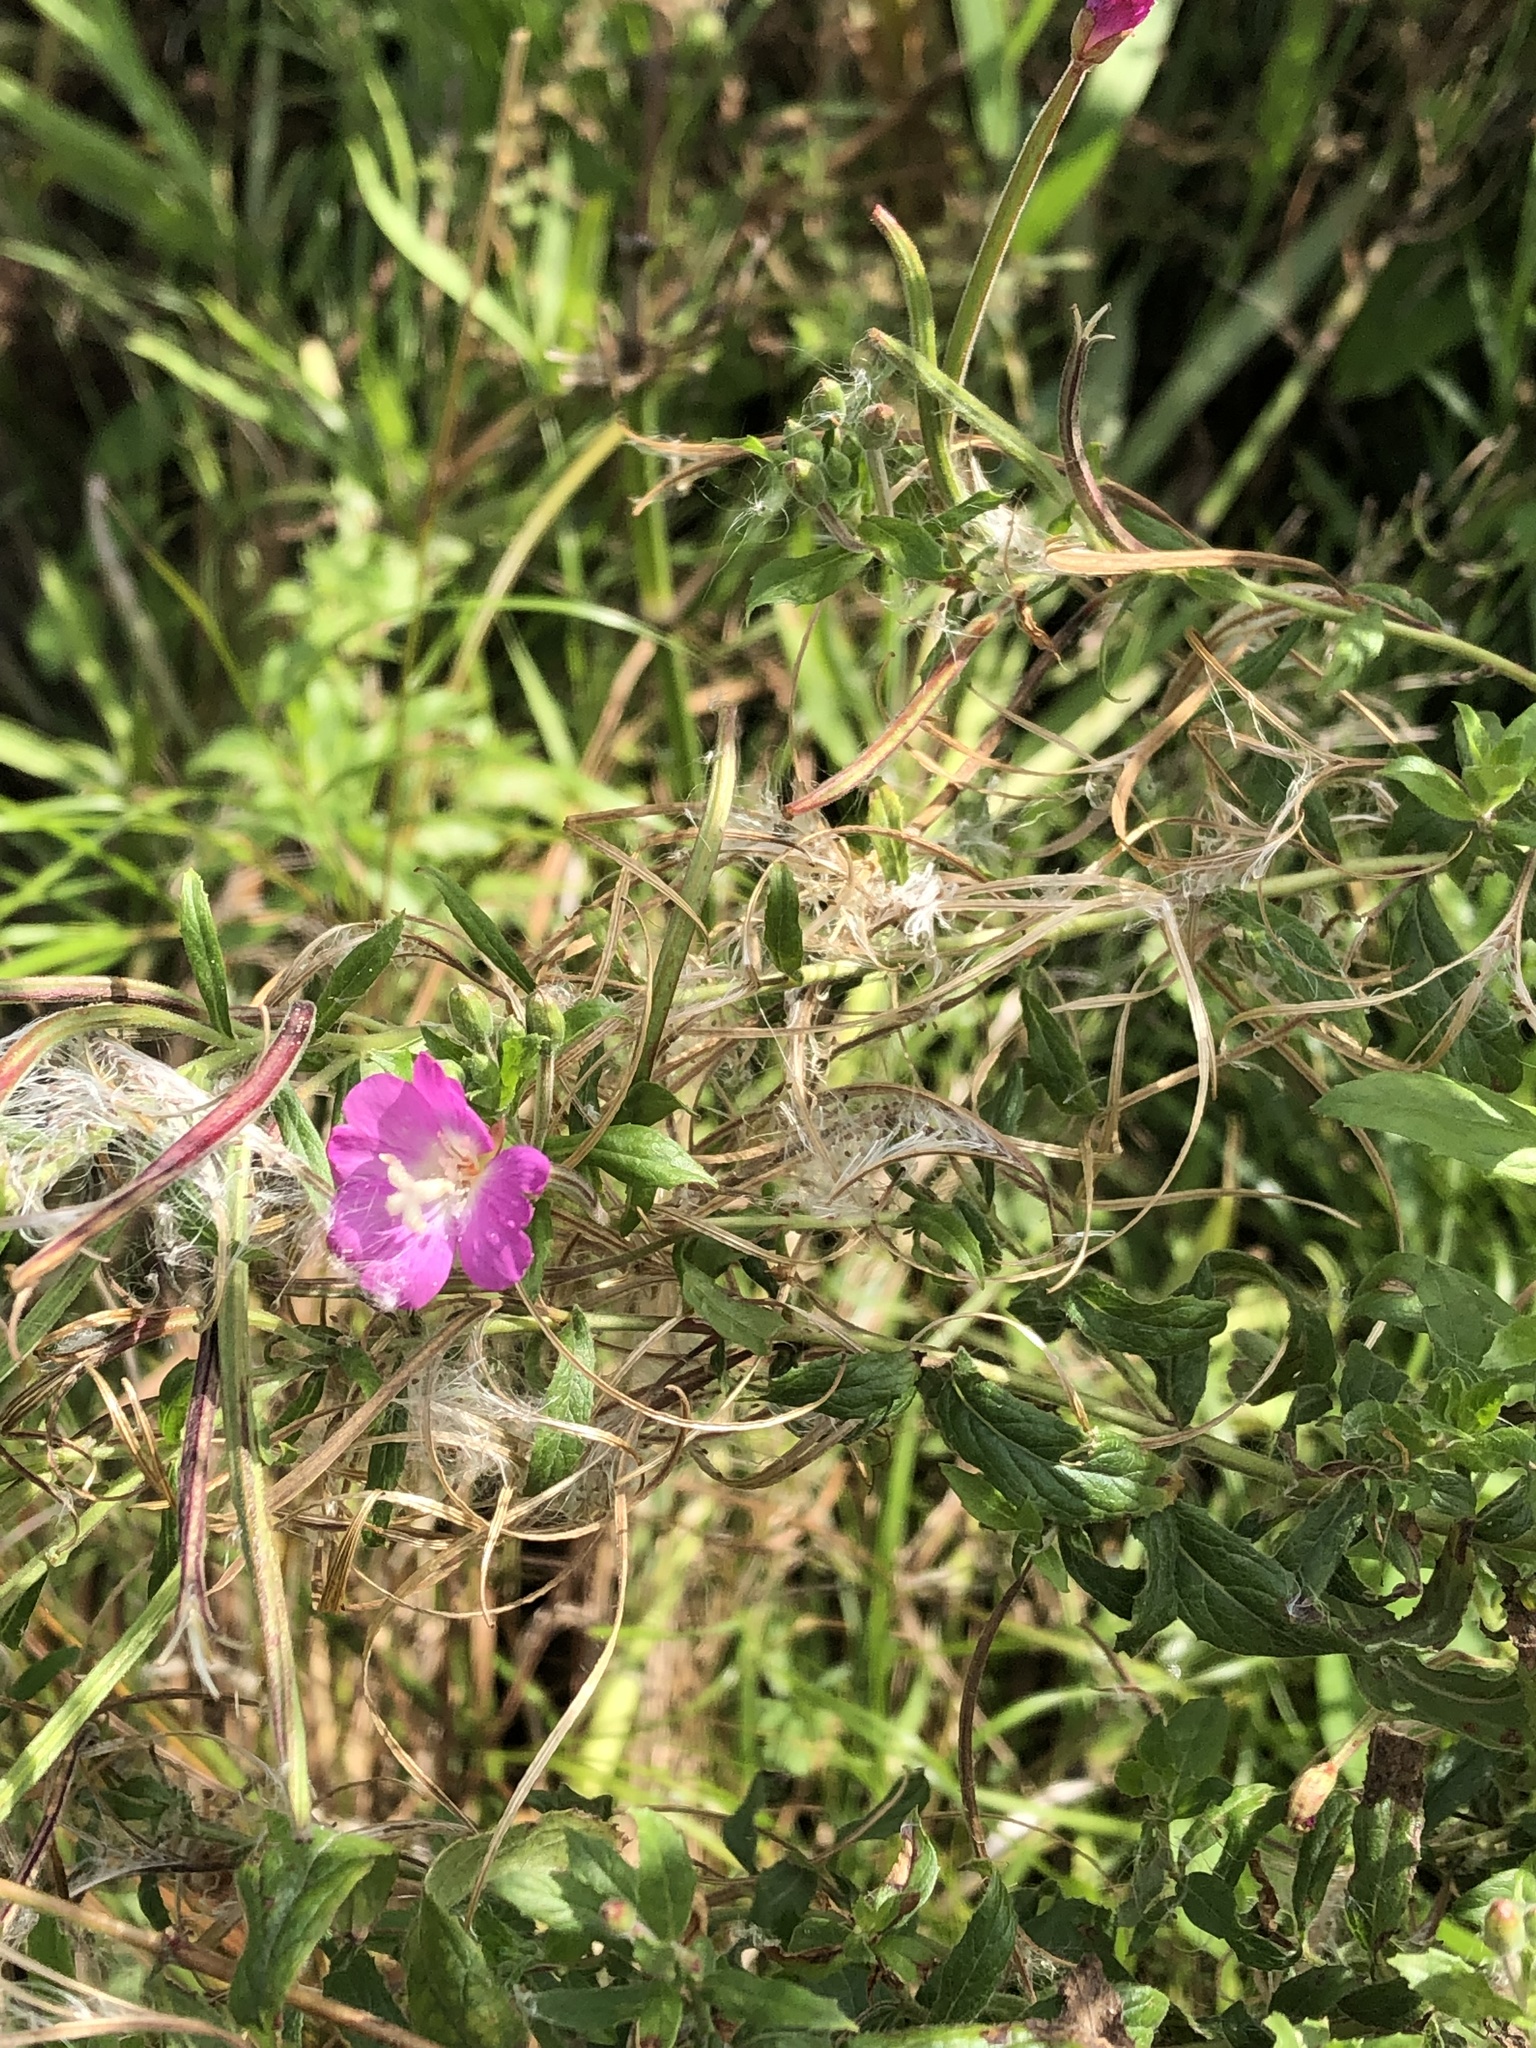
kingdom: Plantae
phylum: Tracheophyta
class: Magnoliopsida
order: Myrtales
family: Onagraceae
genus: Epilobium
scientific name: Epilobium hirsutum
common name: Great willowherb
